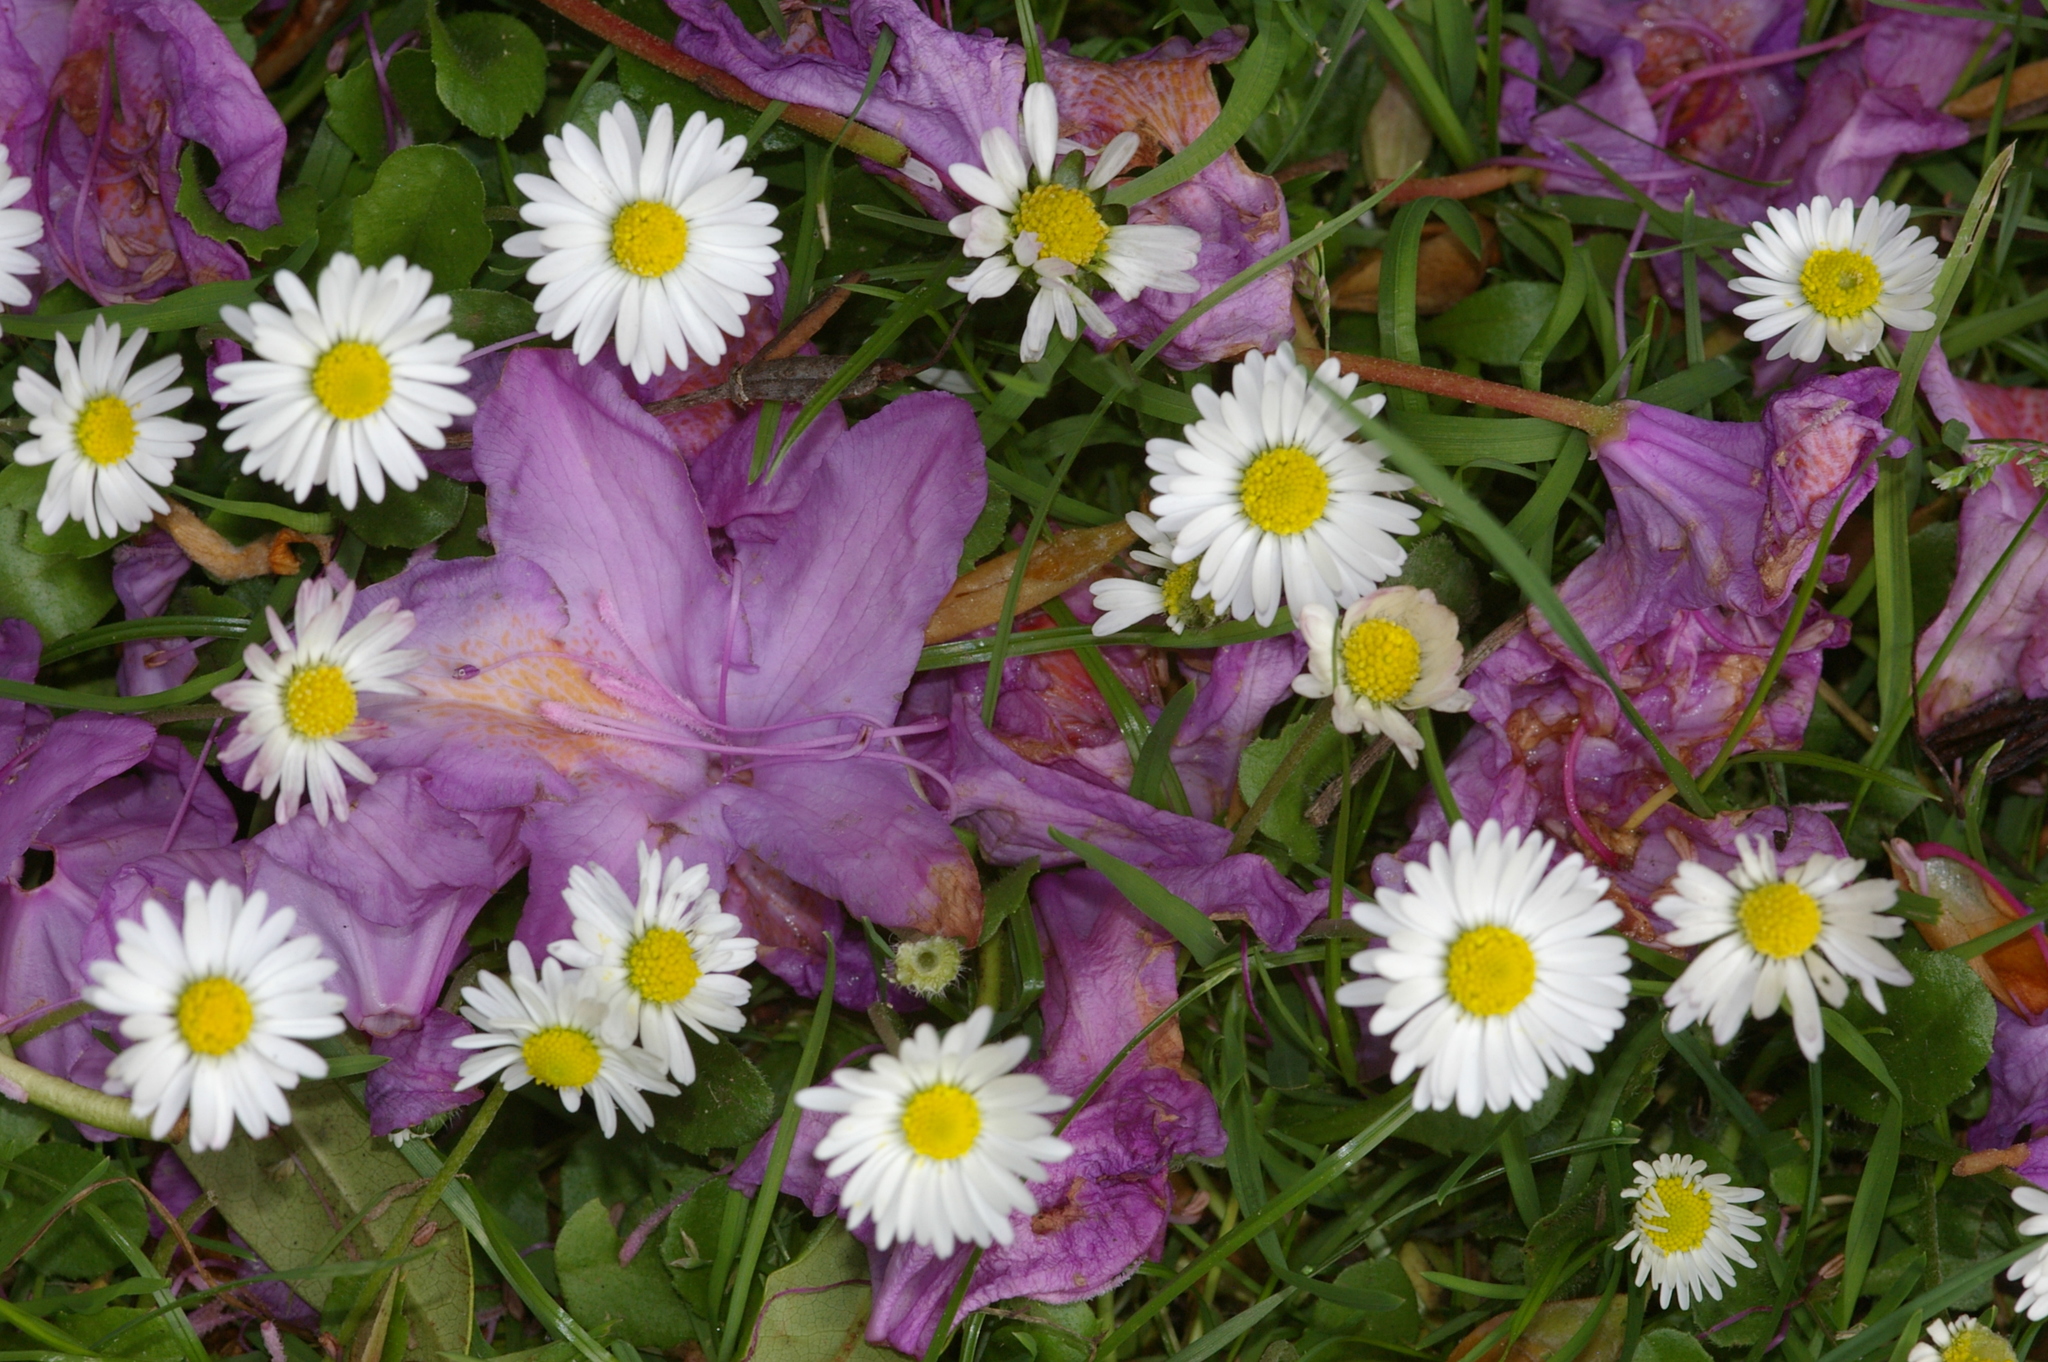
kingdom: Plantae
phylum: Tracheophyta
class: Magnoliopsida
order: Asterales
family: Asteraceae
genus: Bellis
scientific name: Bellis perennis
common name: Lawndaisy
